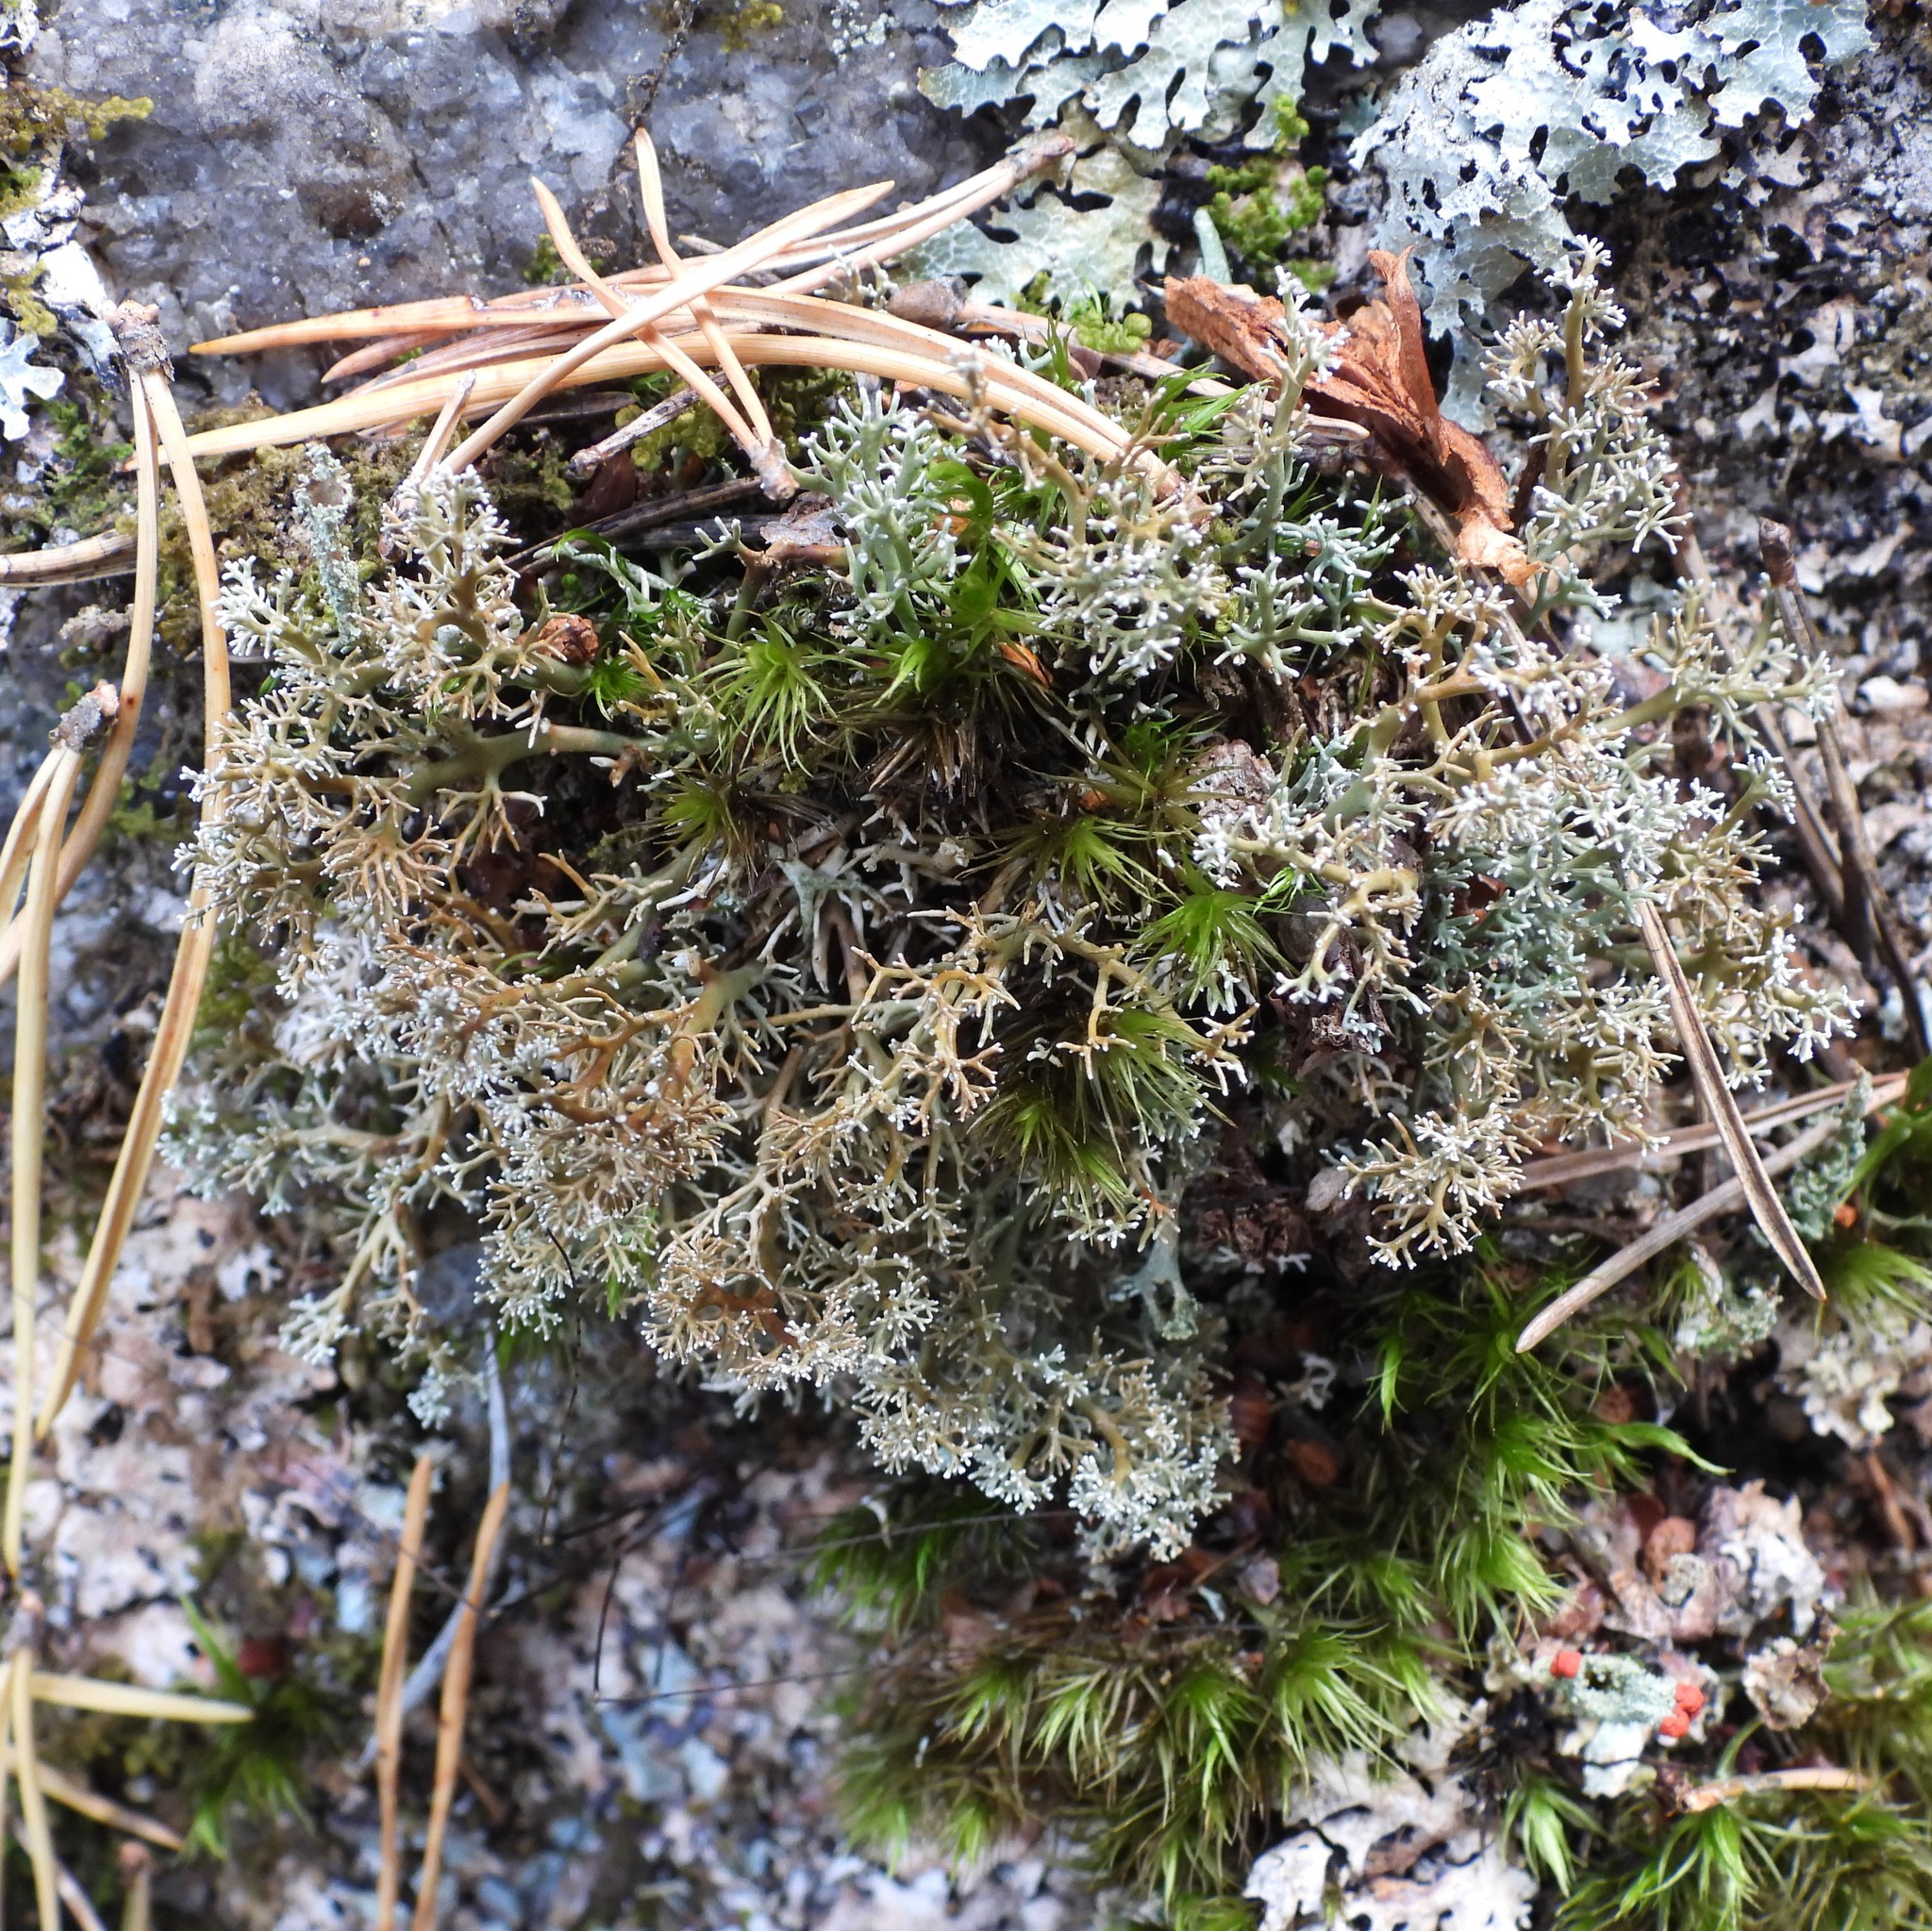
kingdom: Fungi
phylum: Ascomycota
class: Lecanoromycetes
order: Lecanorales
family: Sphaerophoraceae
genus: Sphaerophorus
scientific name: Sphaerophorus fragilis
